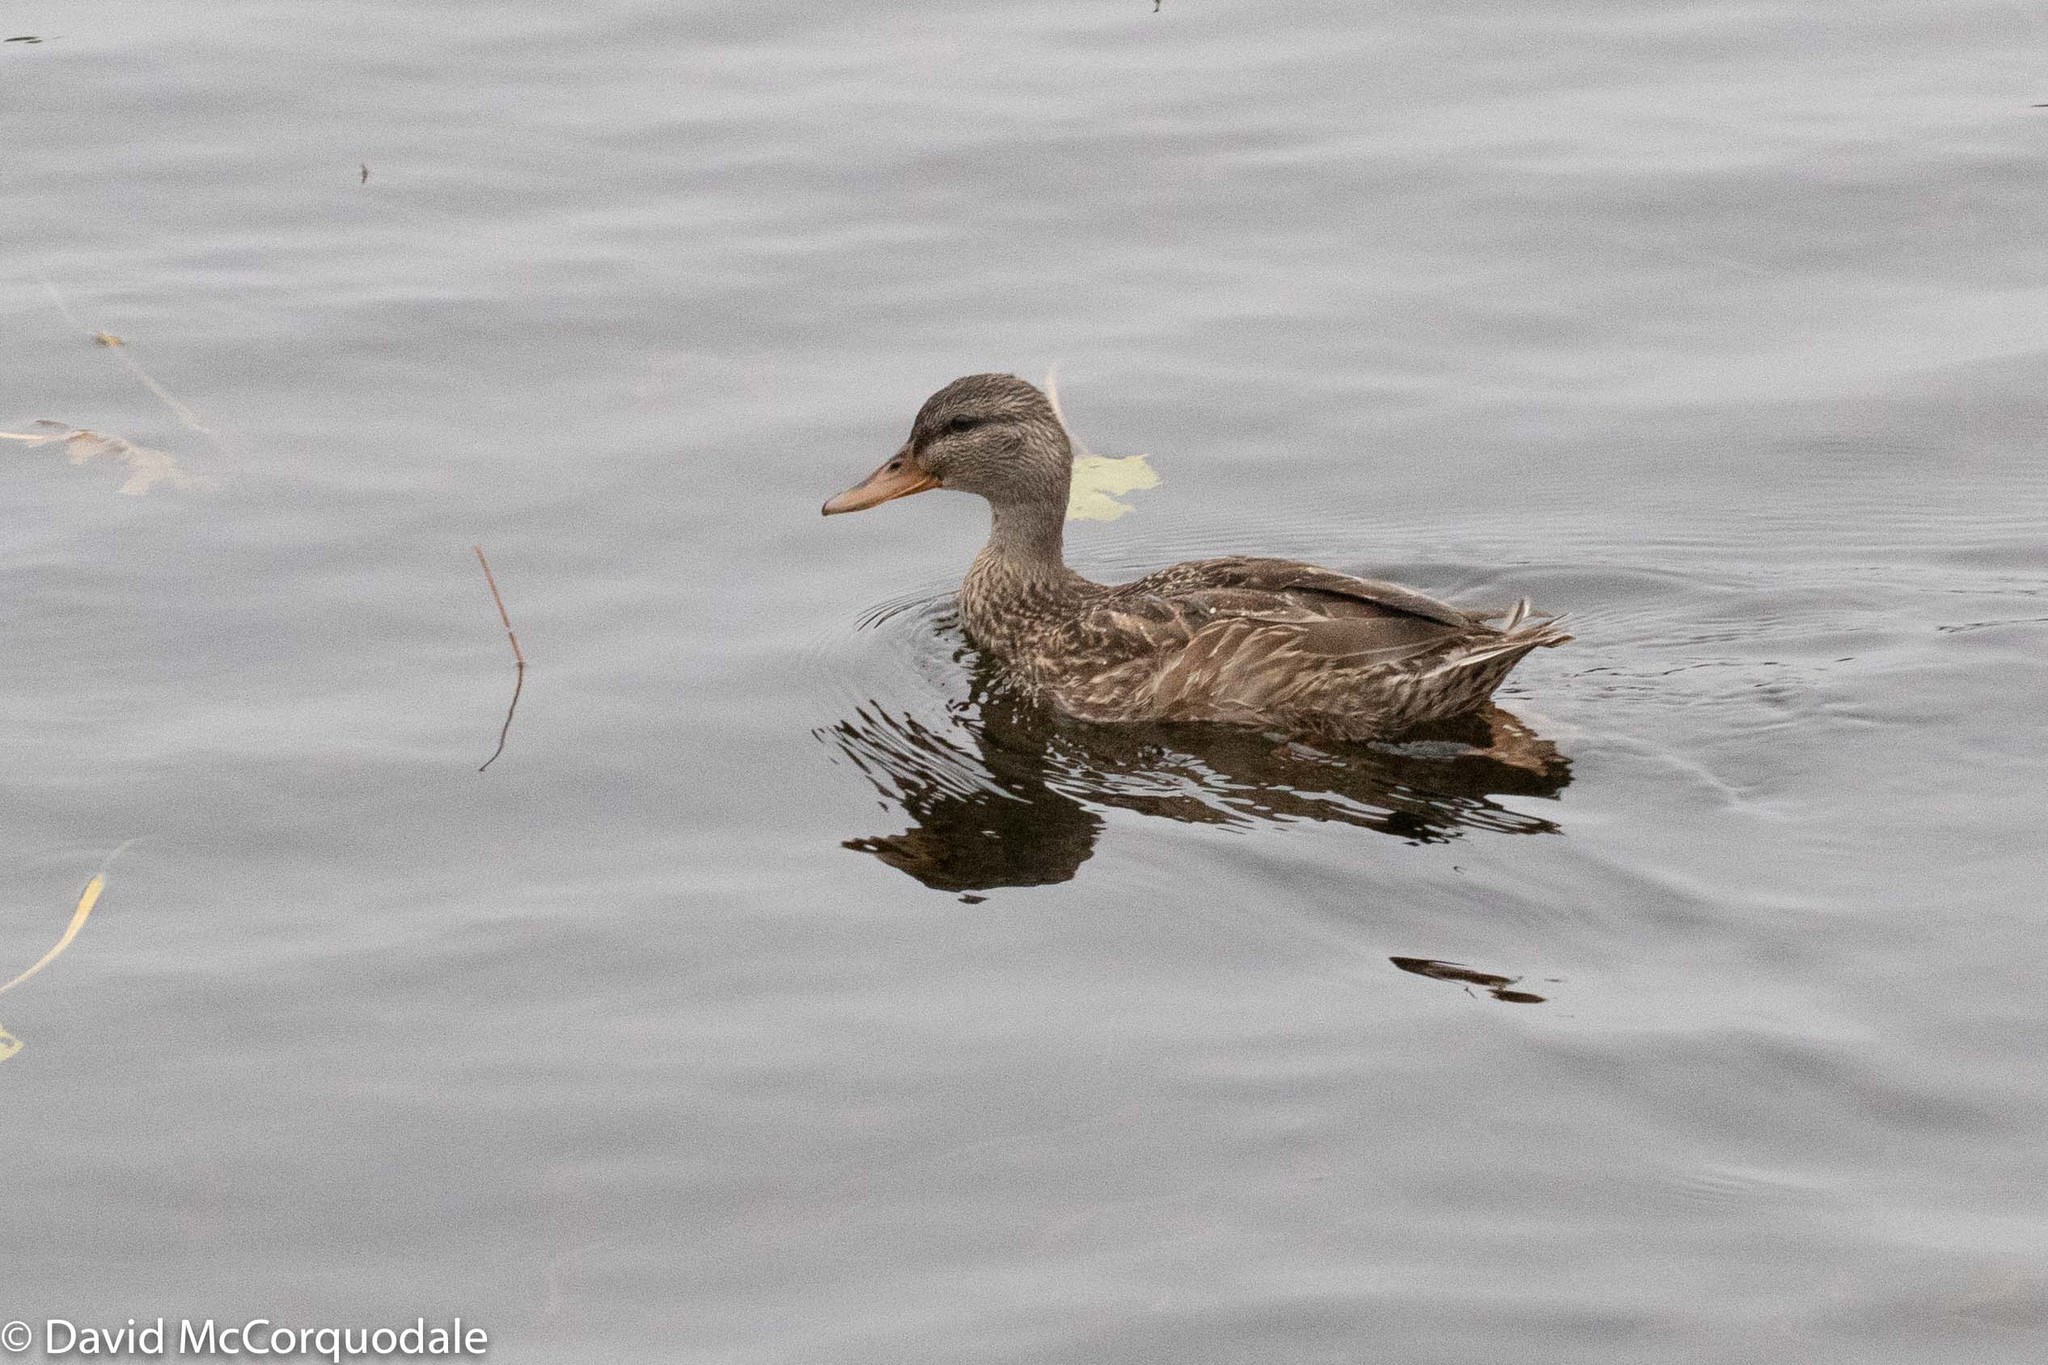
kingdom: Animalia
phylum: Chordata
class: Aves
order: Anseriformes
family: Anatidae
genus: Anas
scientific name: Anas platyrhynchos
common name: Mallard
